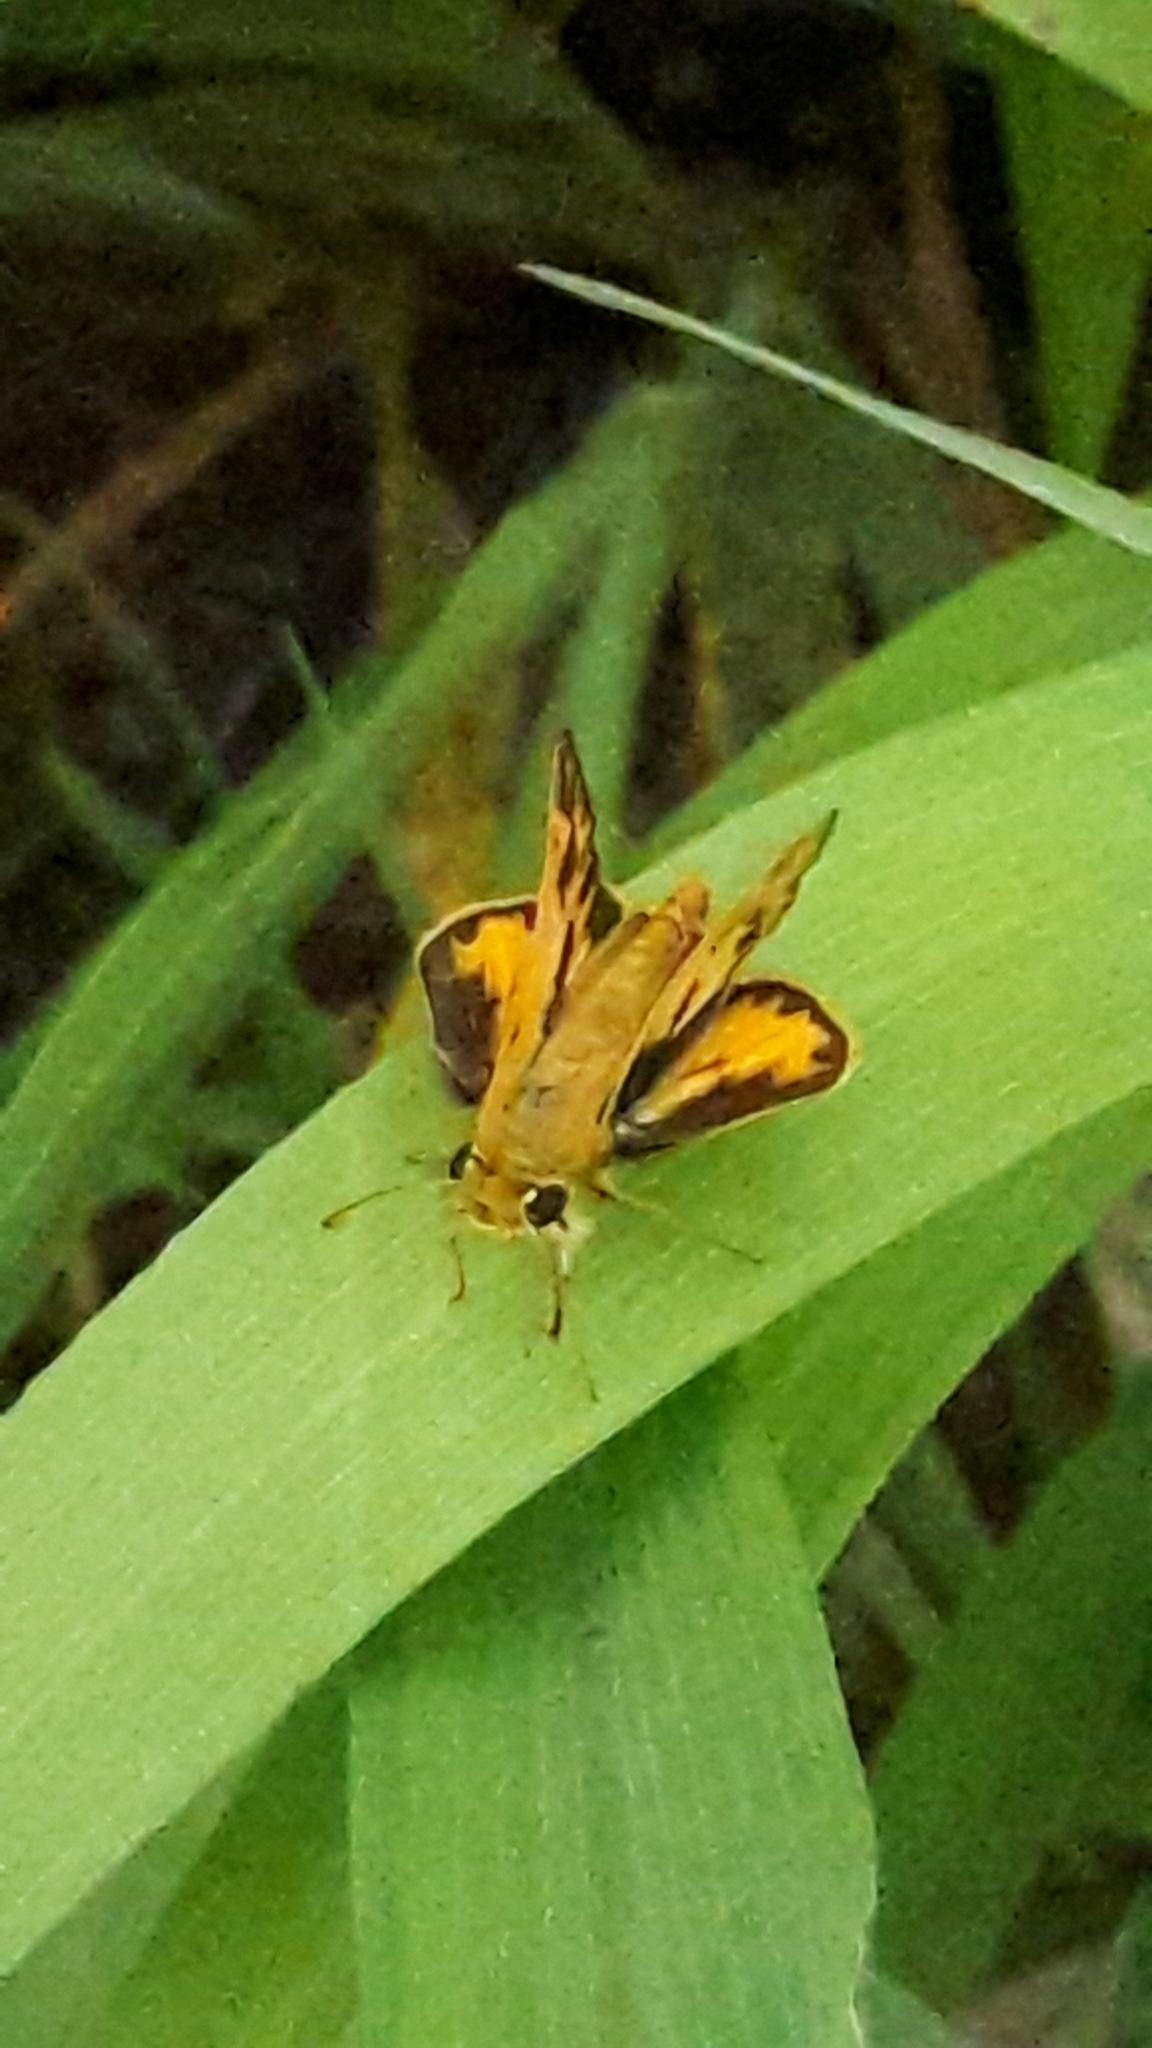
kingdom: Animalia
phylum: Arthropoda
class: Insecta
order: Lepidoptera
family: Hesperiidae
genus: Hylephila
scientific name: Hylephila phyleus
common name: Fiery skipper
